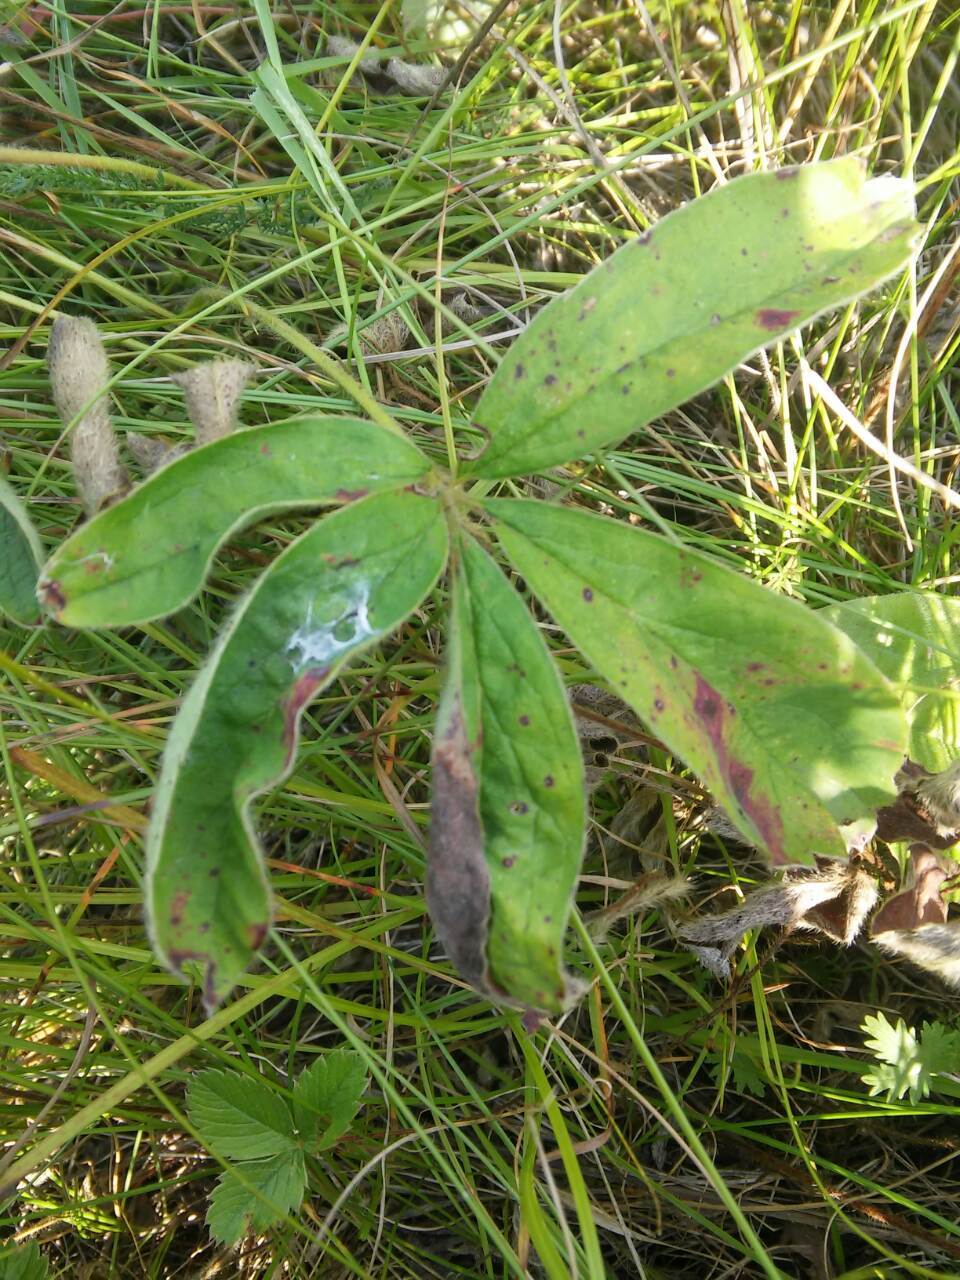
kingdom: Plantae
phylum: Tracheophyta
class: Magnoliopsida
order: Fabales
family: Fabaceae
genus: Lupinus
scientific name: Lupinus polyphyllus
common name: Garden lupin
